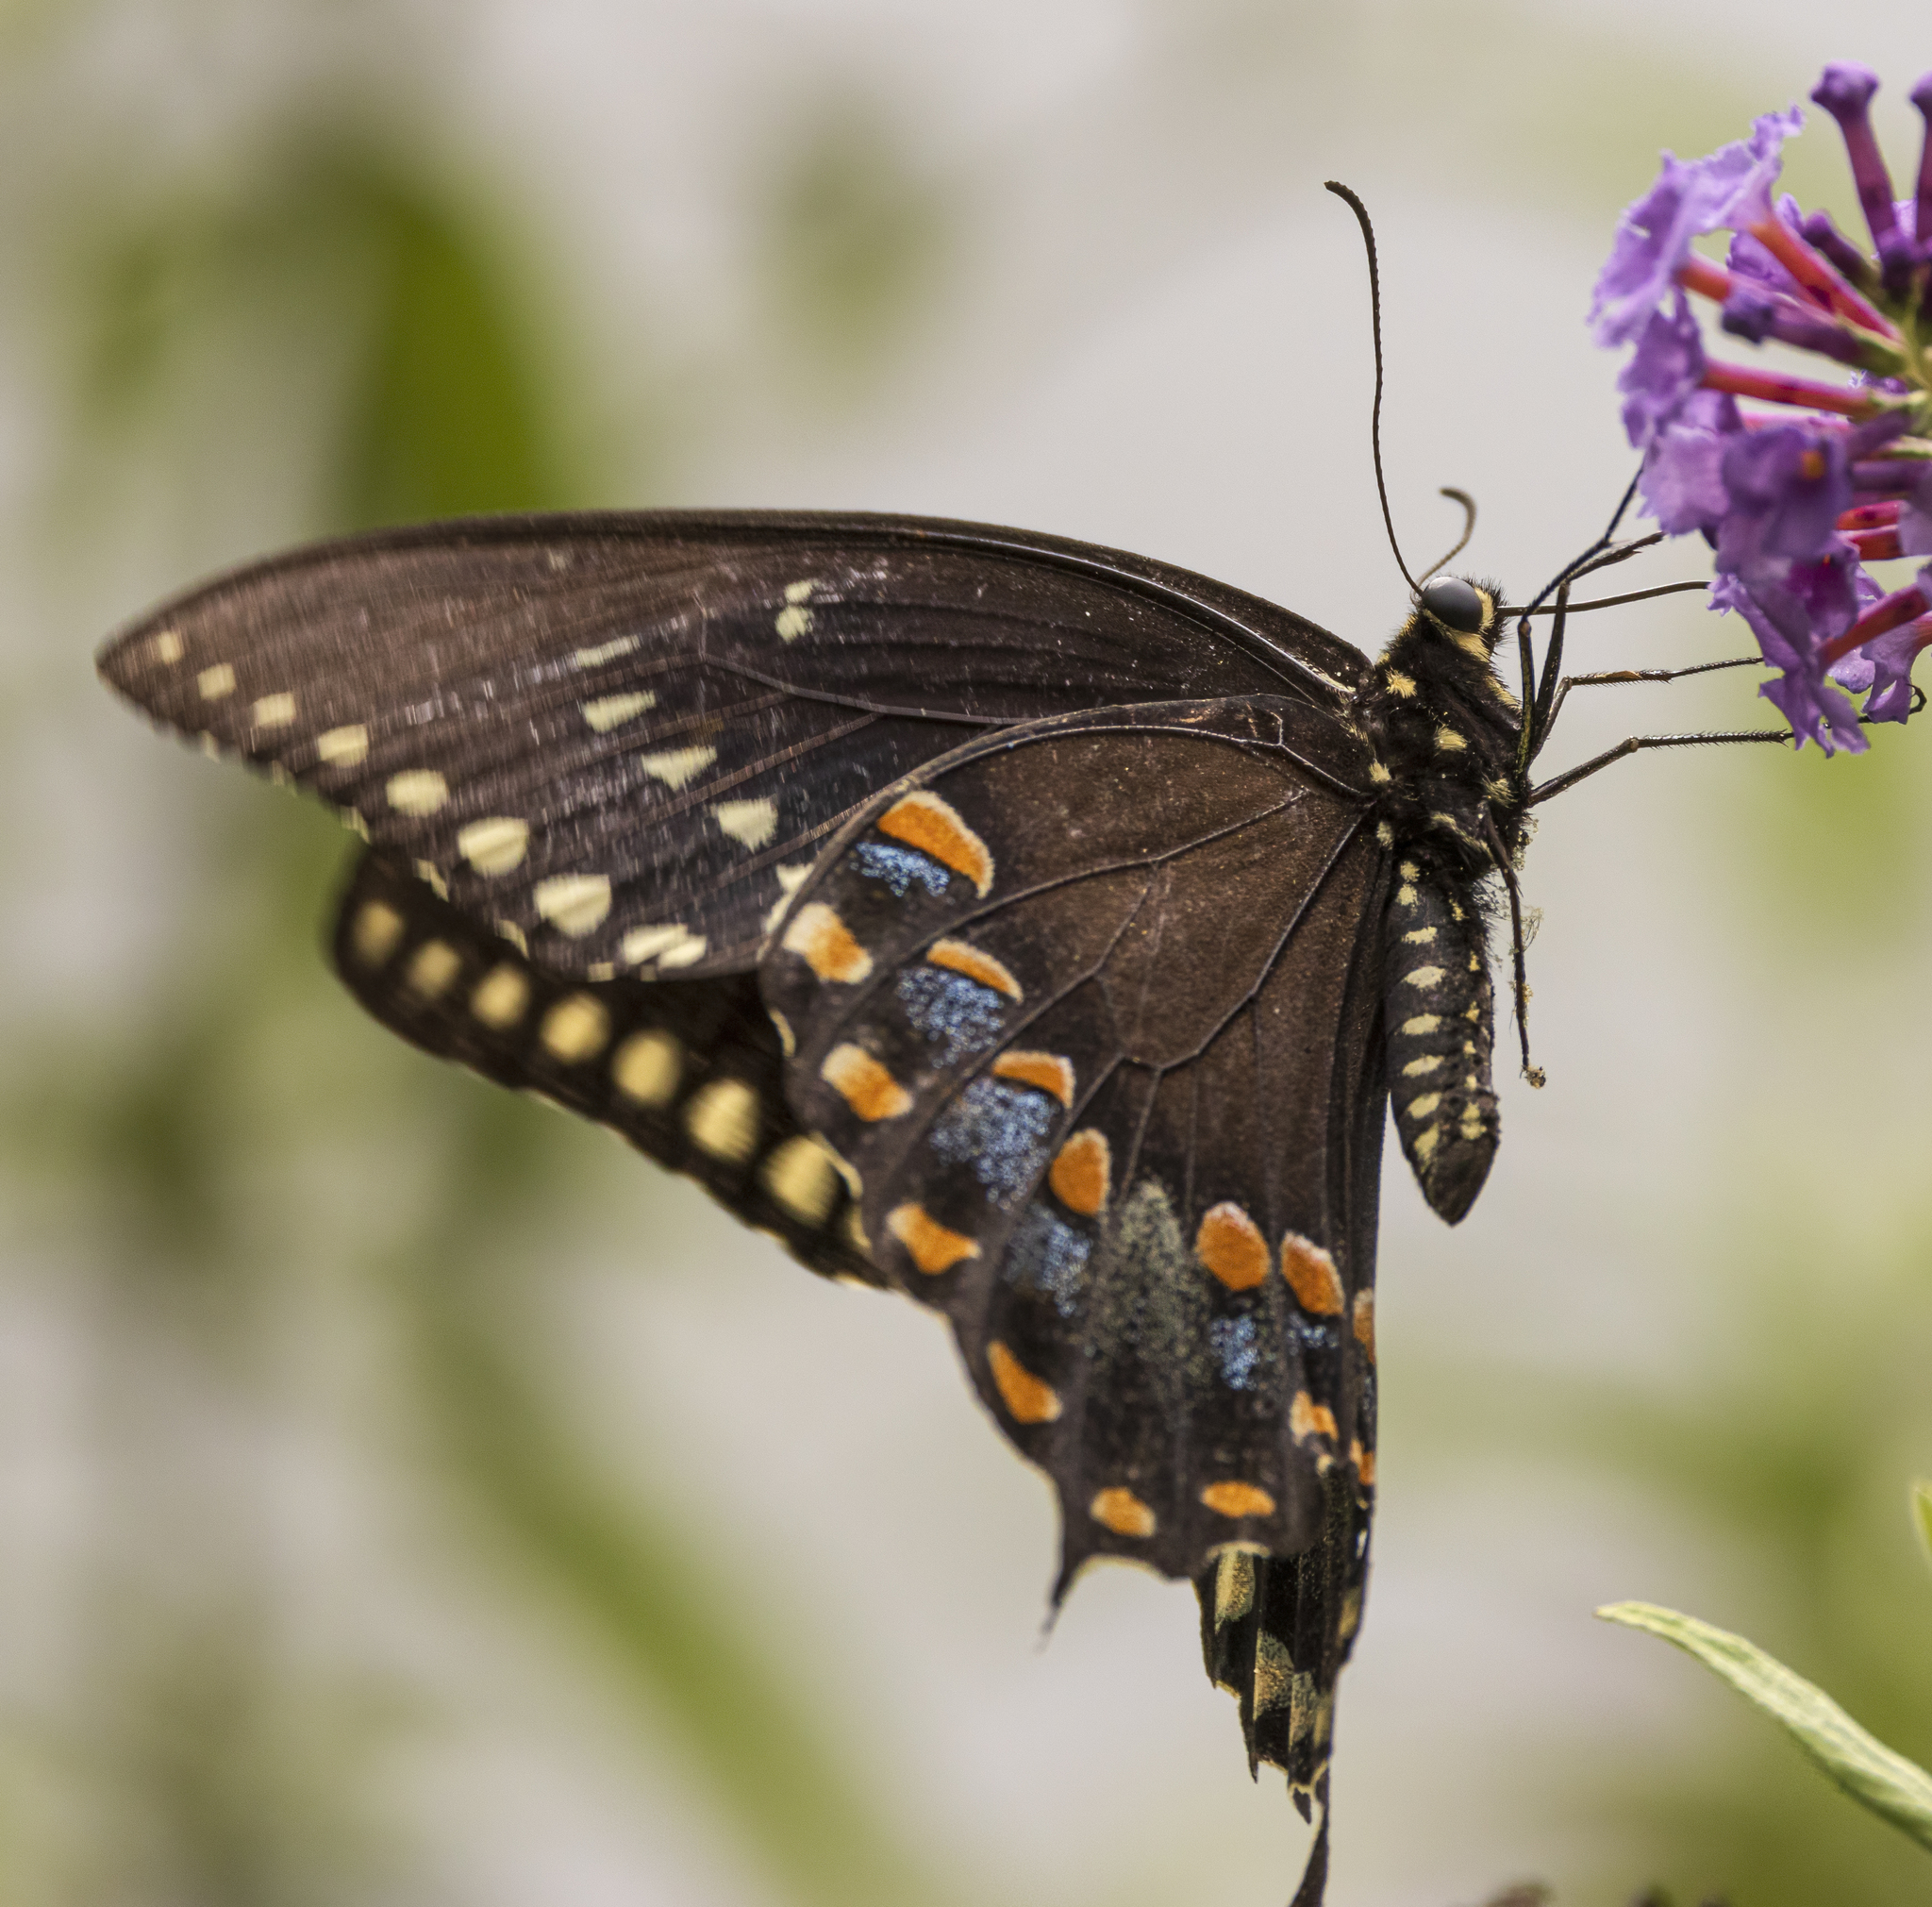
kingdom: Animalia
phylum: Arthropoda
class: Insecta
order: Lepidoptera
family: Papilionidae
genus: Papilio
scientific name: Papilio troilus
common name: Spicebush swallowtail
